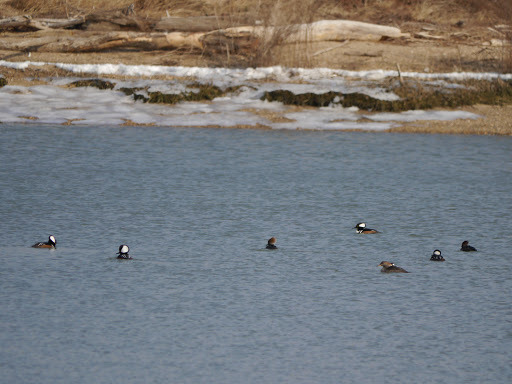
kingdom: Animalia
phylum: Chordata
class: Aves
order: Anseriformes
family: Anatidae
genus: Lophodytes
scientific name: Lophodytes cucullatus
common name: Hooded merganser
